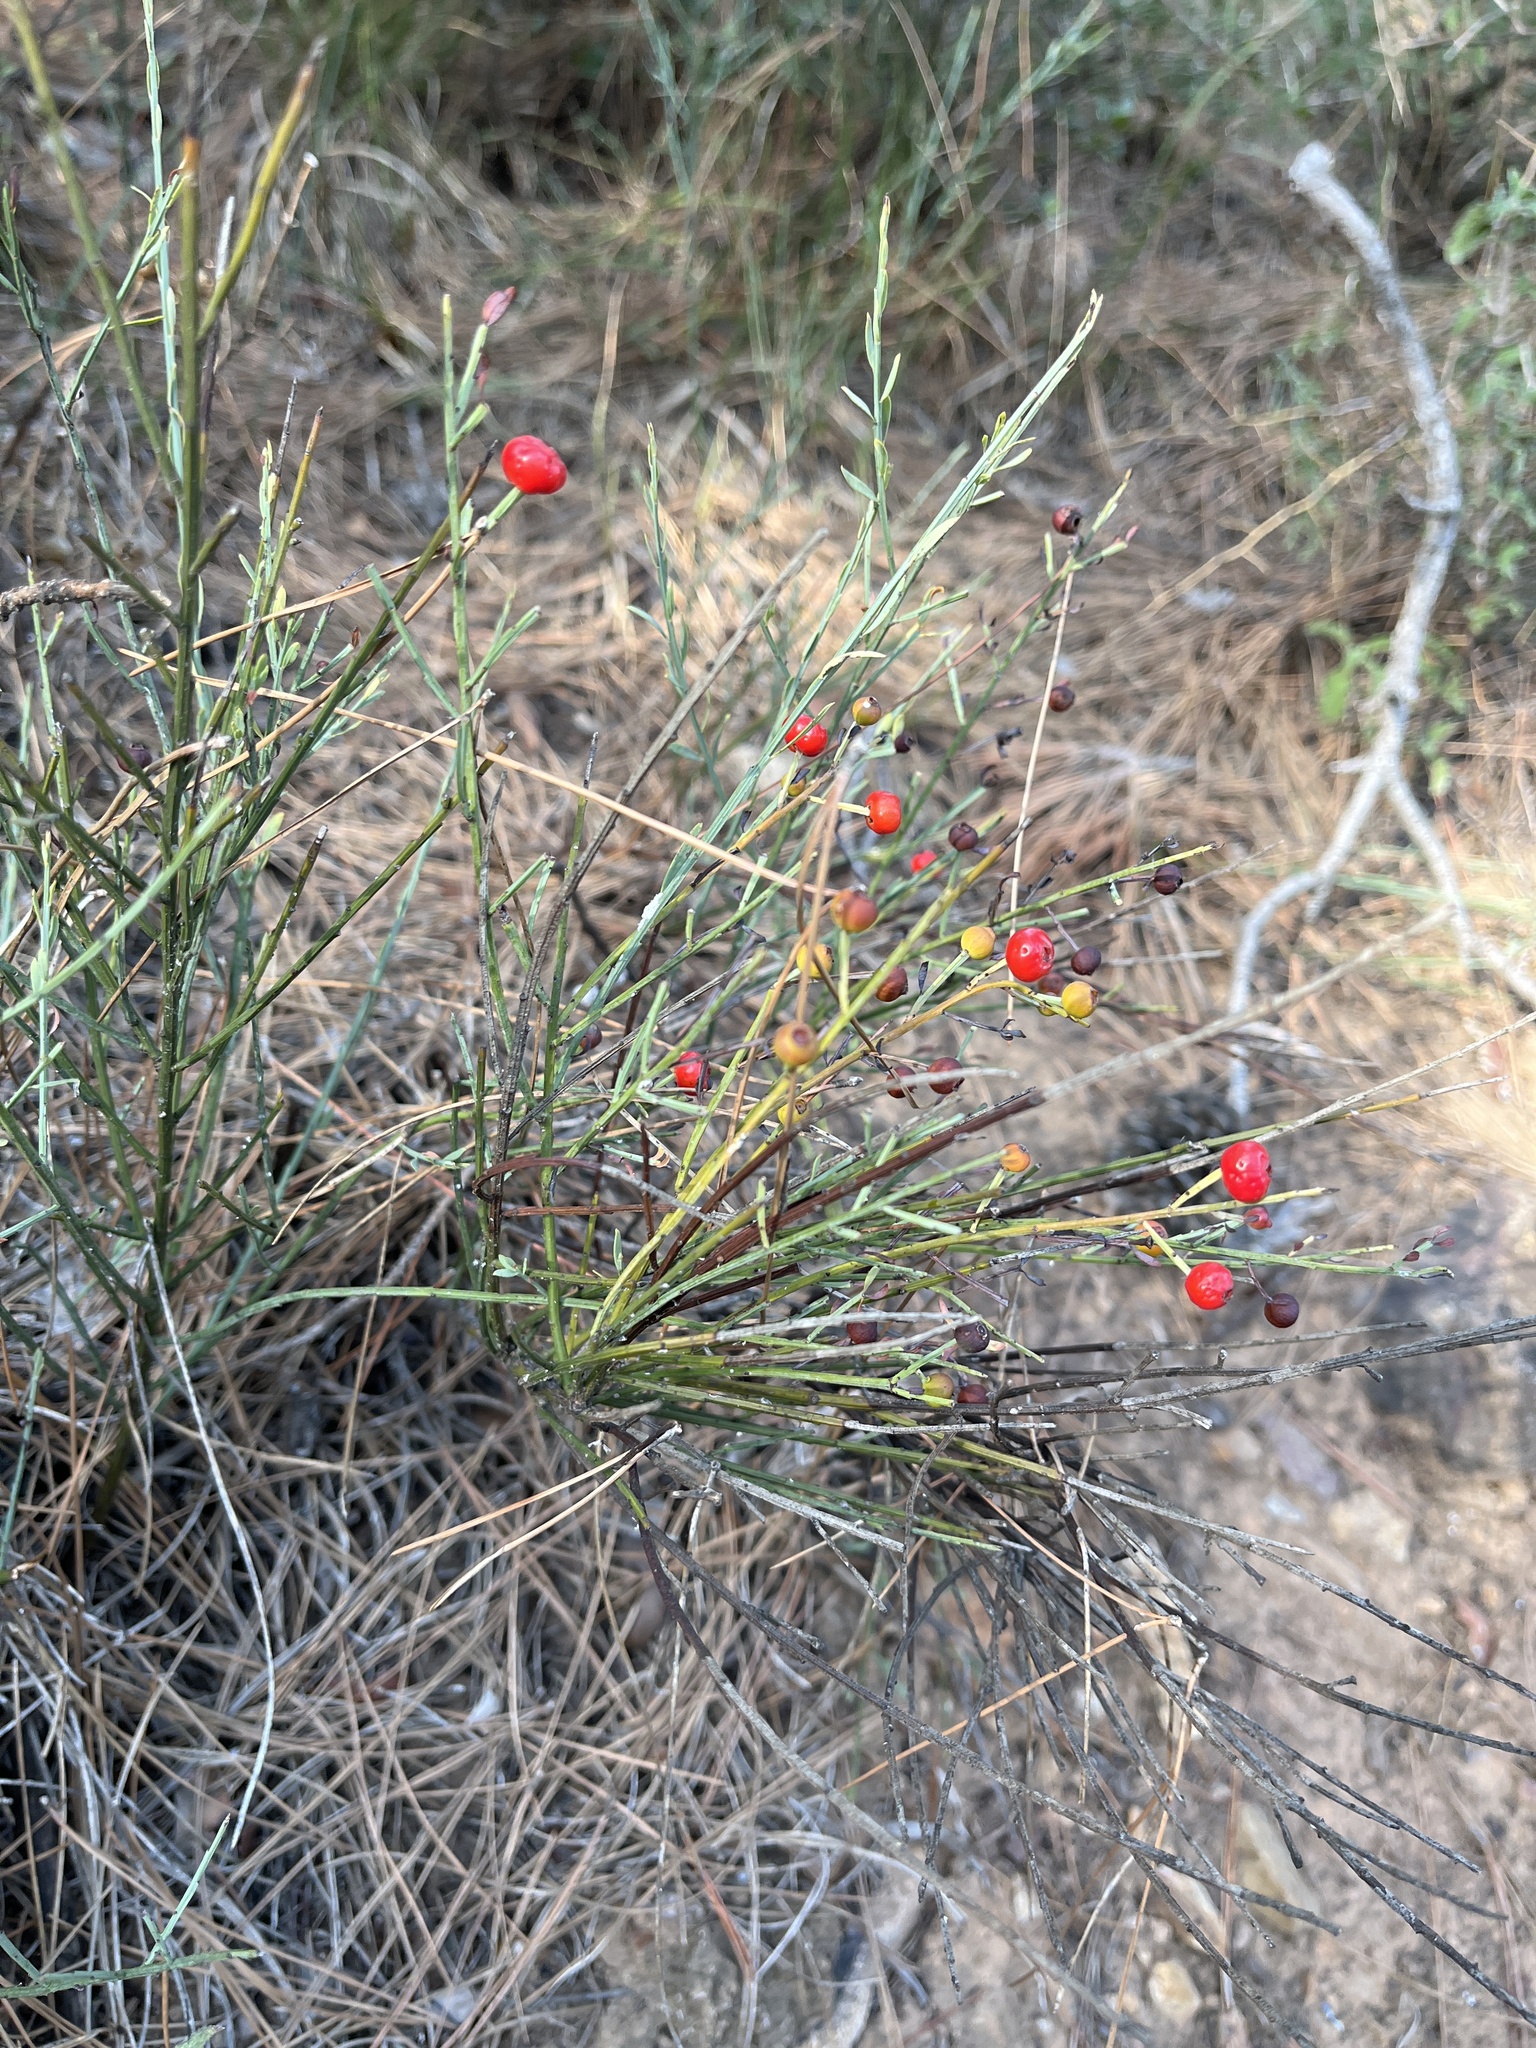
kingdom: Plantae
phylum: Tracheophyta
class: Magnoliopsida
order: Santalales
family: Santalaceae
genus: Osyris
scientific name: Osyris alba
